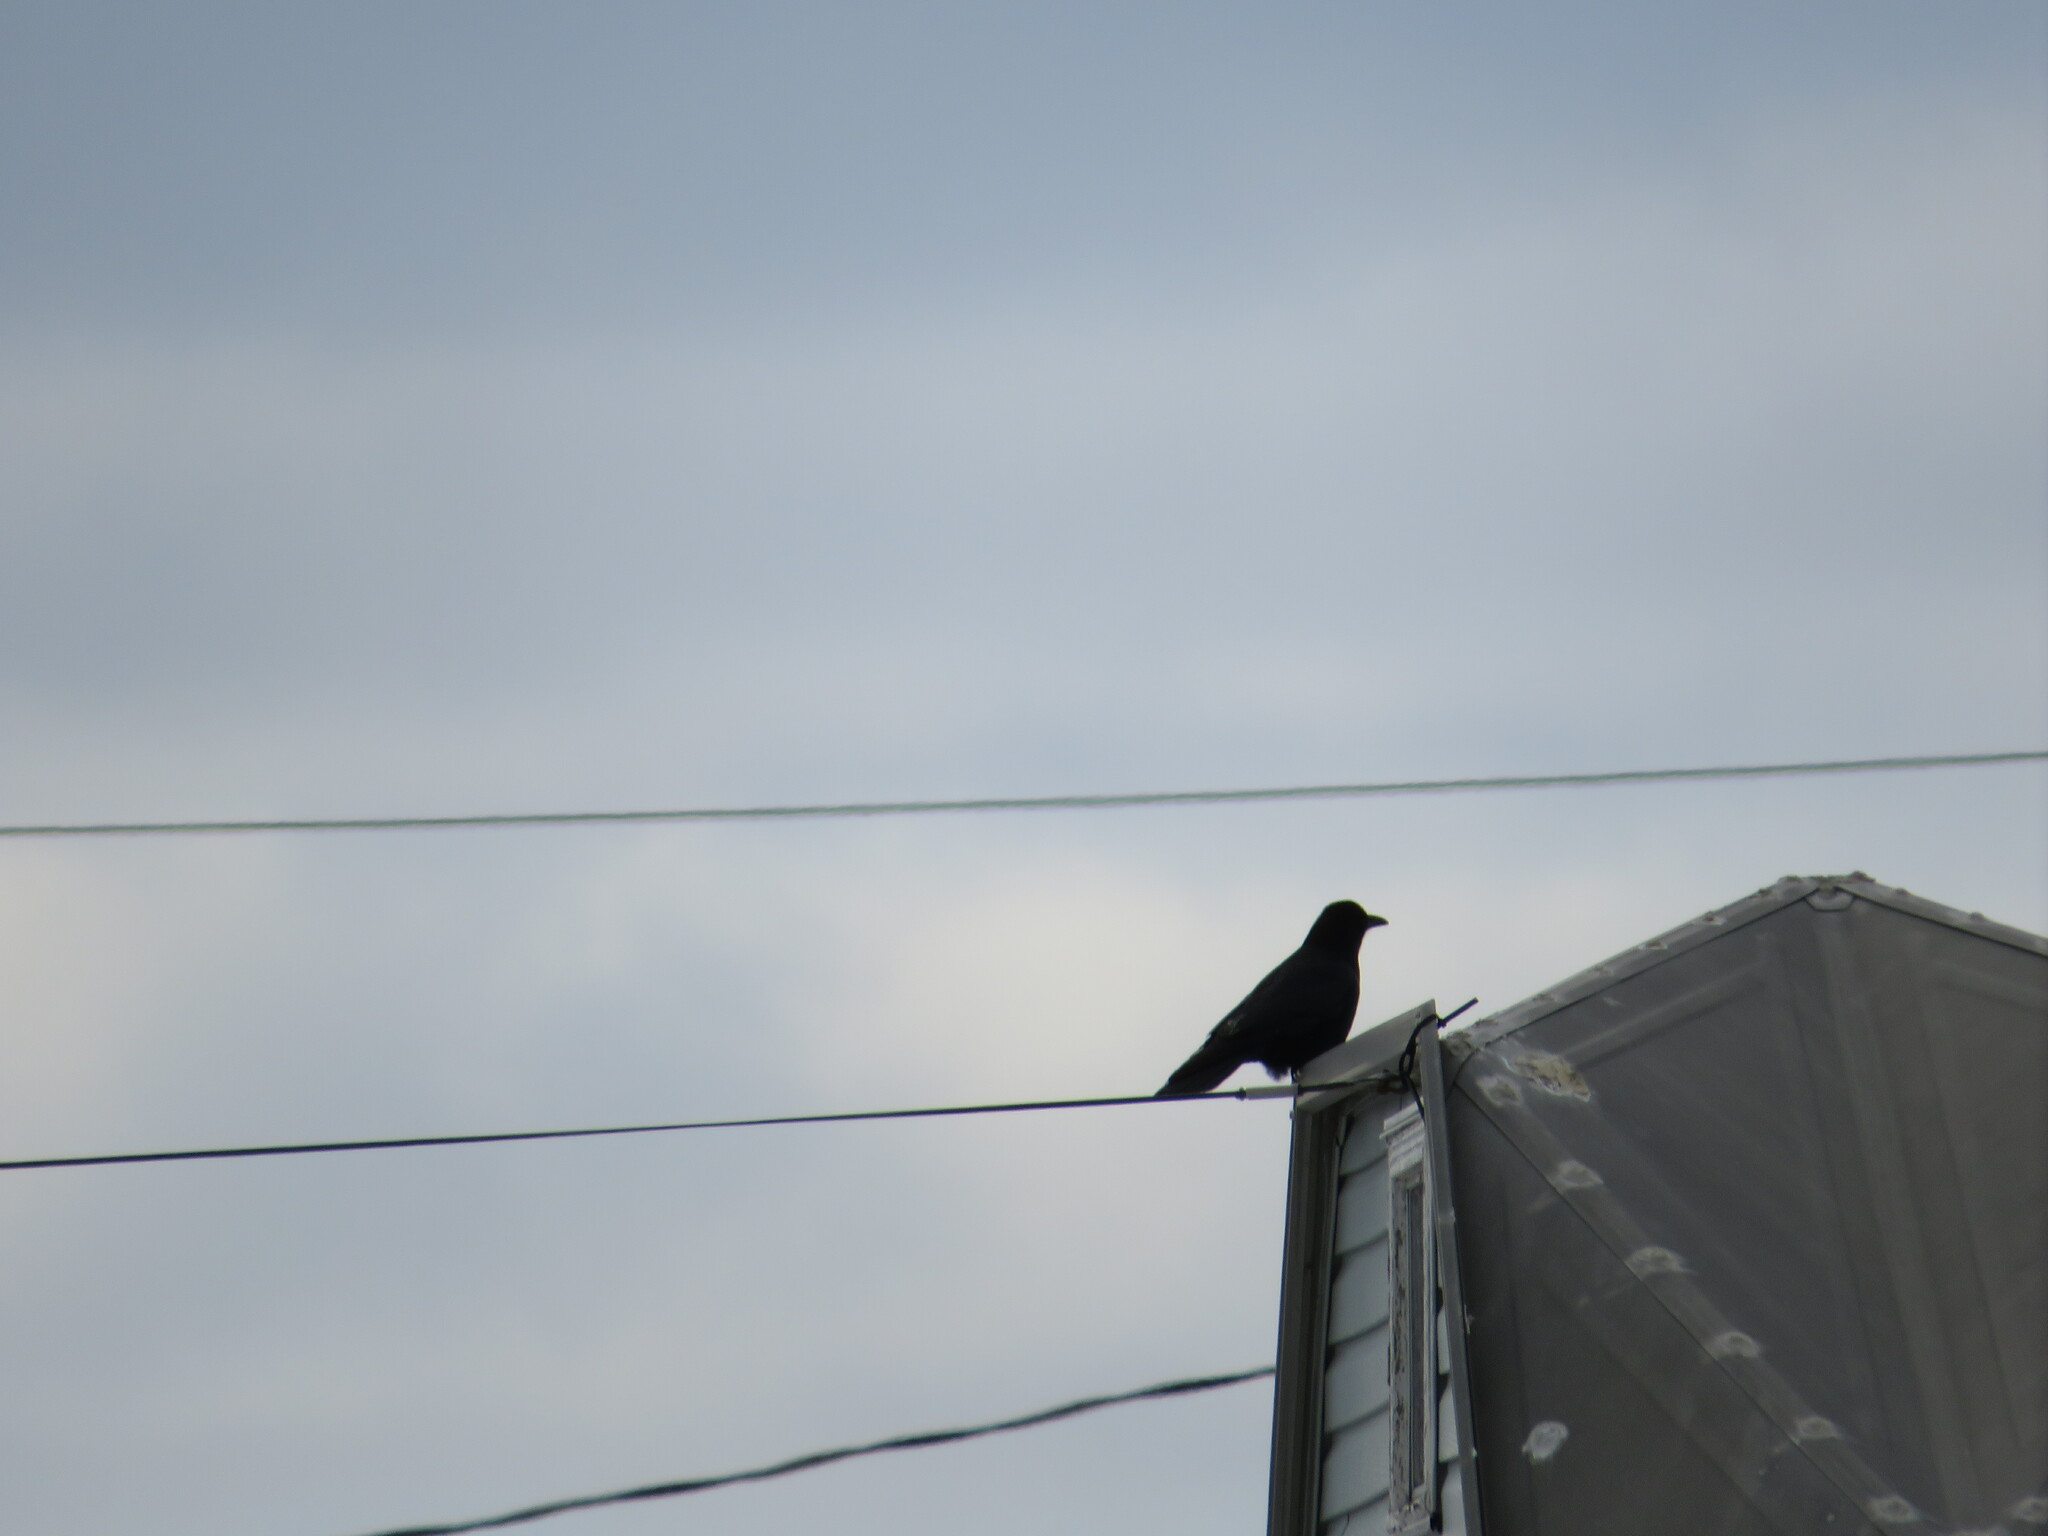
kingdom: Animalia
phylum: Chordata
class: Aves
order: Passeriformes
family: Corvidae
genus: Corvus
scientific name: Corvus brachyrhynchos
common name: American crow
